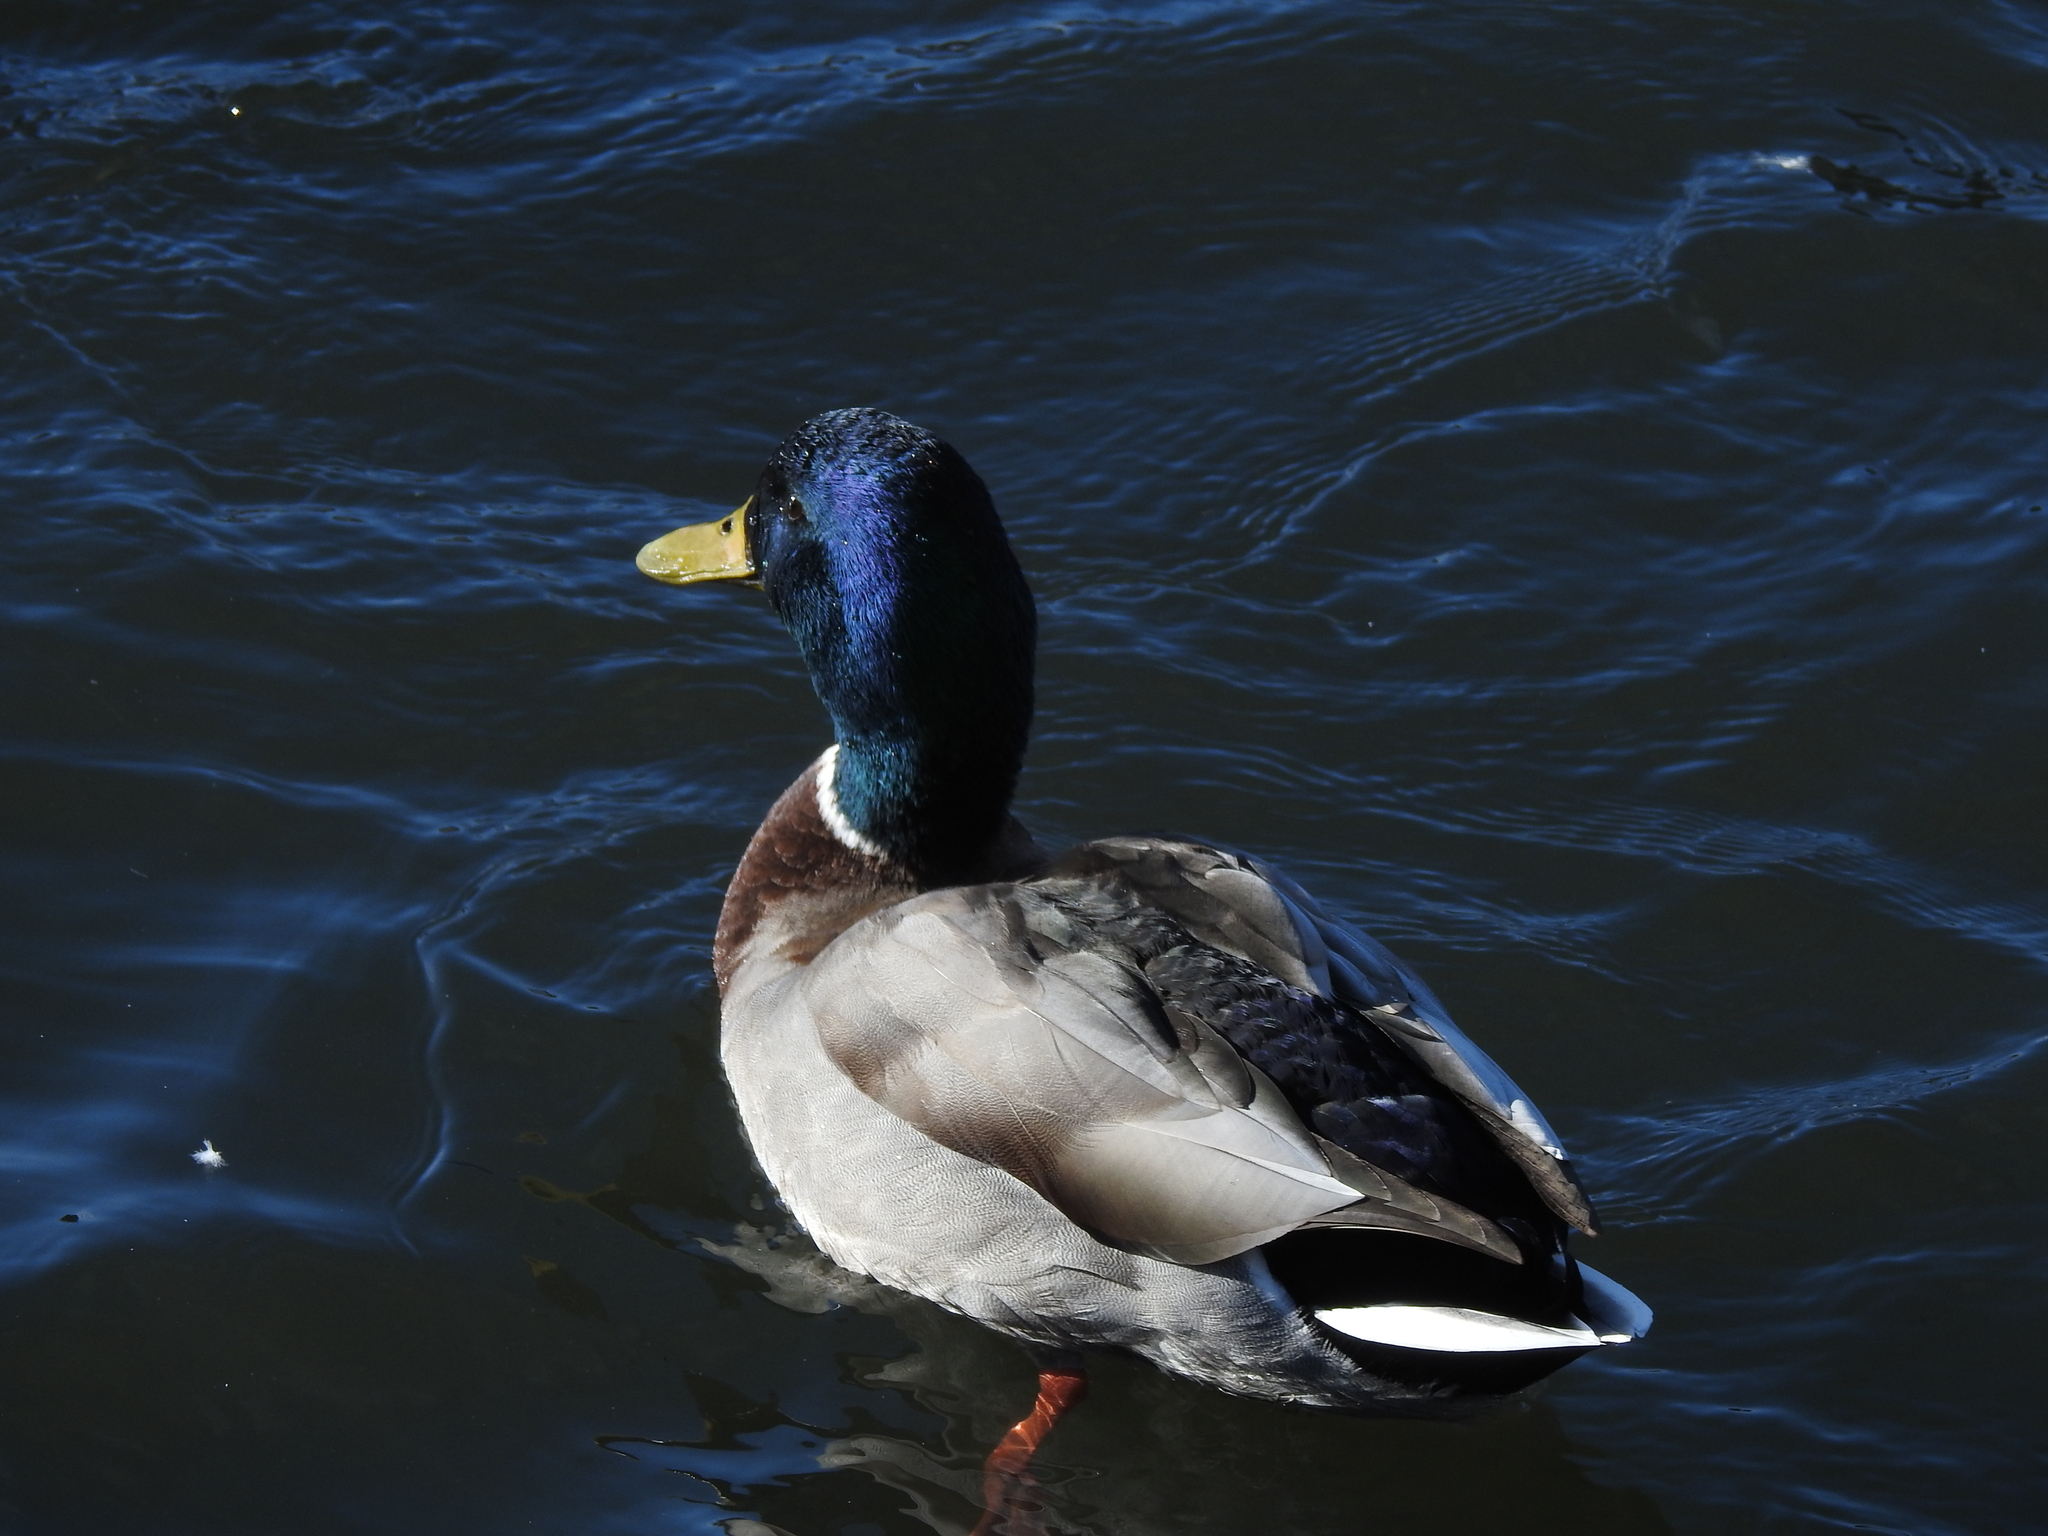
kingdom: Animalia
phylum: Chordata
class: Aves
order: Anseriformes
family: Anatidae
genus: Anas
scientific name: Anas platyrhynchos
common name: Mallard
